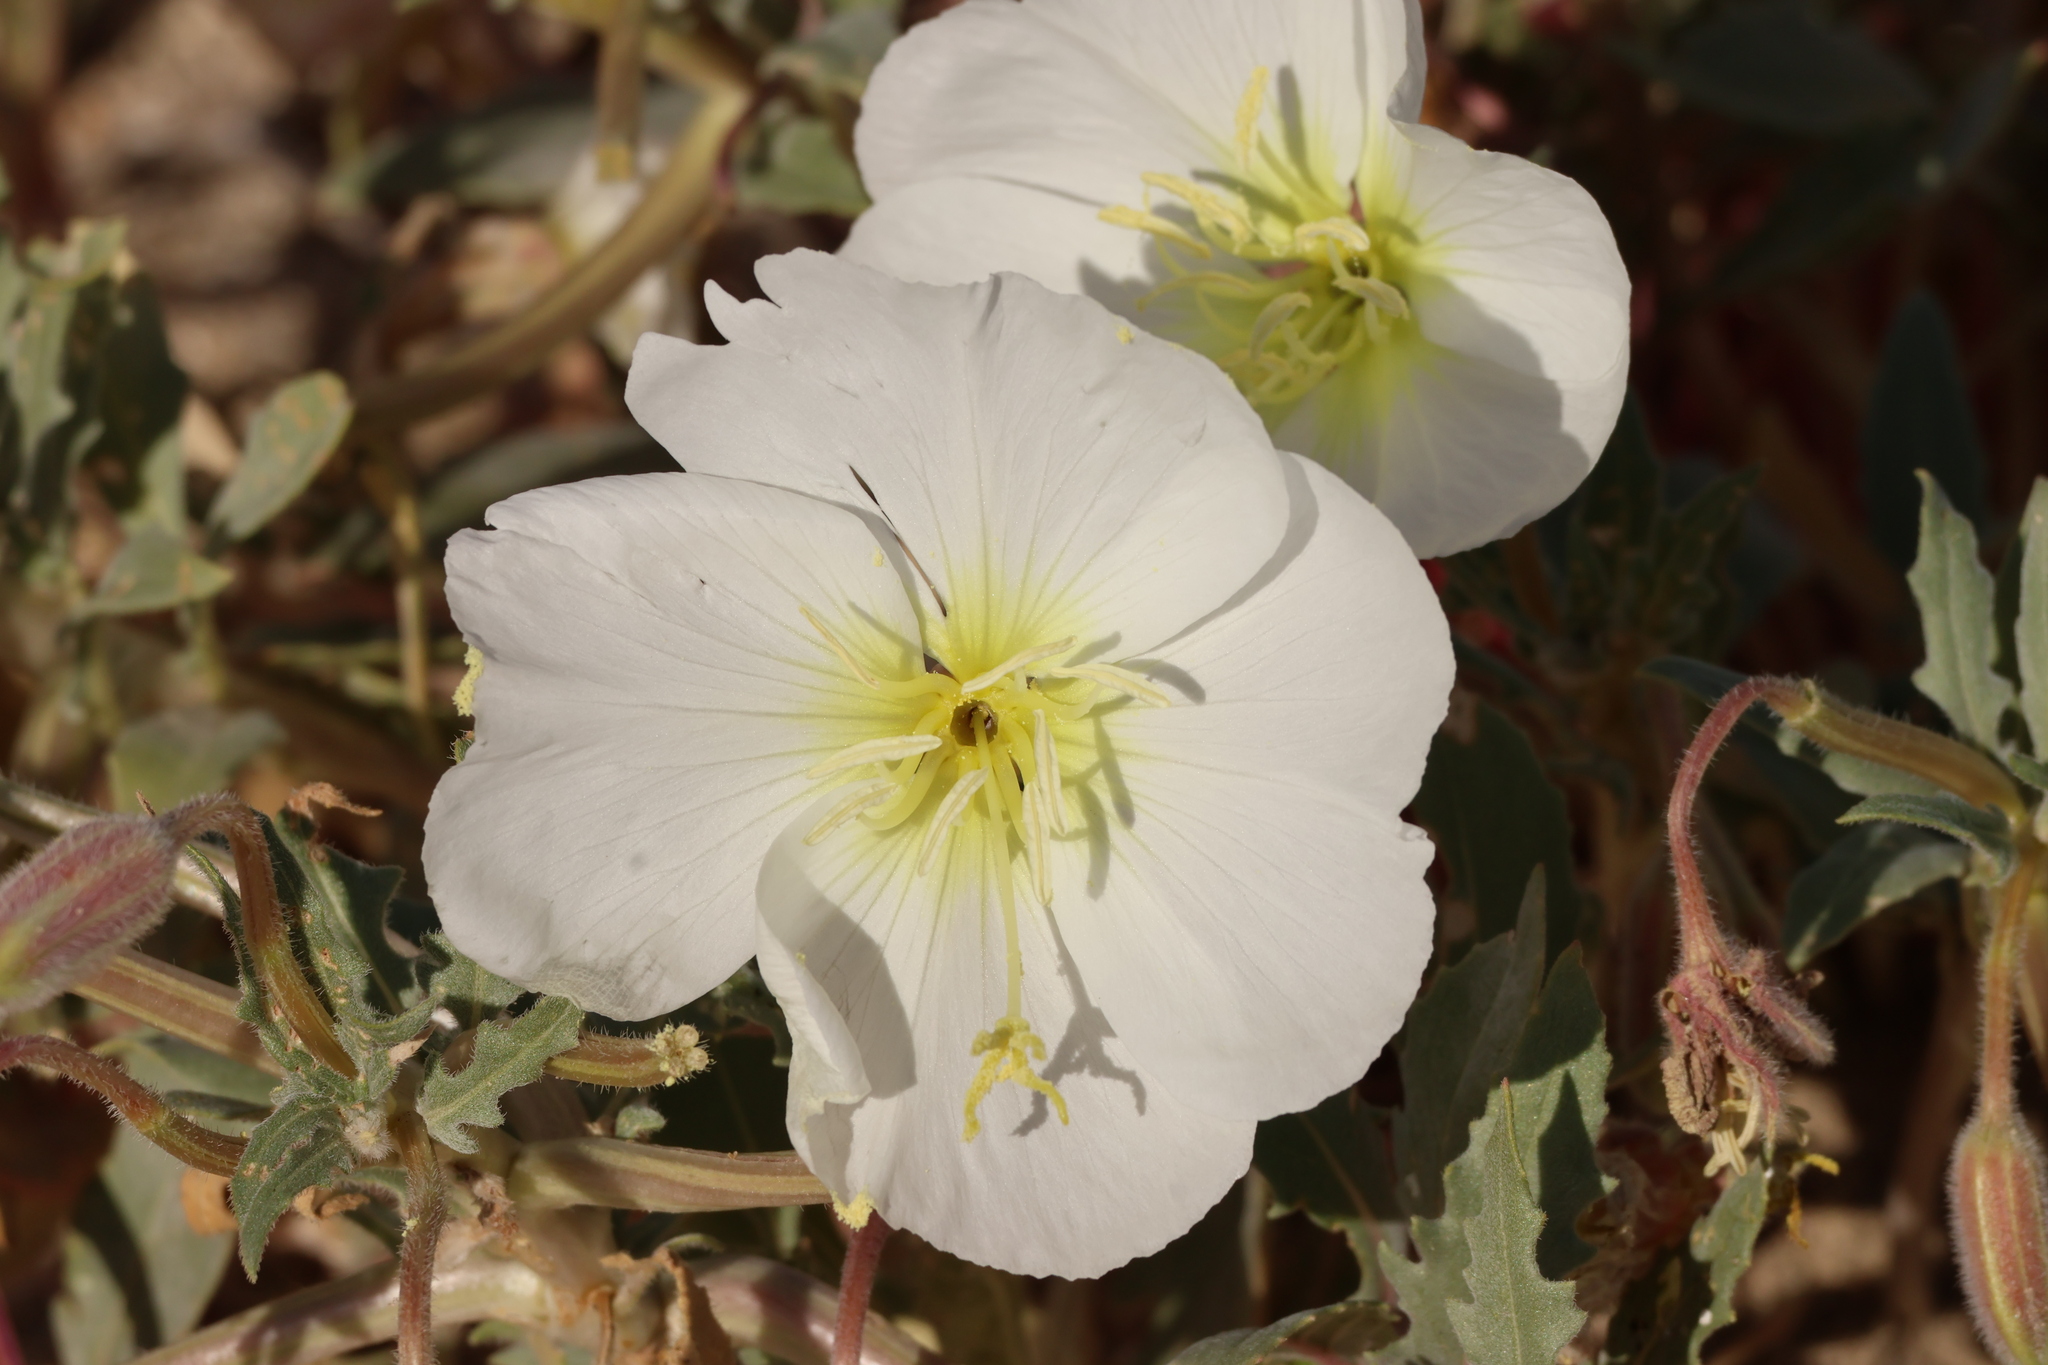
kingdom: Plantae
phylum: Tracheophyta
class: Magnoliopsida
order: Myrtales
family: Onagraceae
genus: Oenothera
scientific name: Oenothera deltoides
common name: Basket evening-primrose
